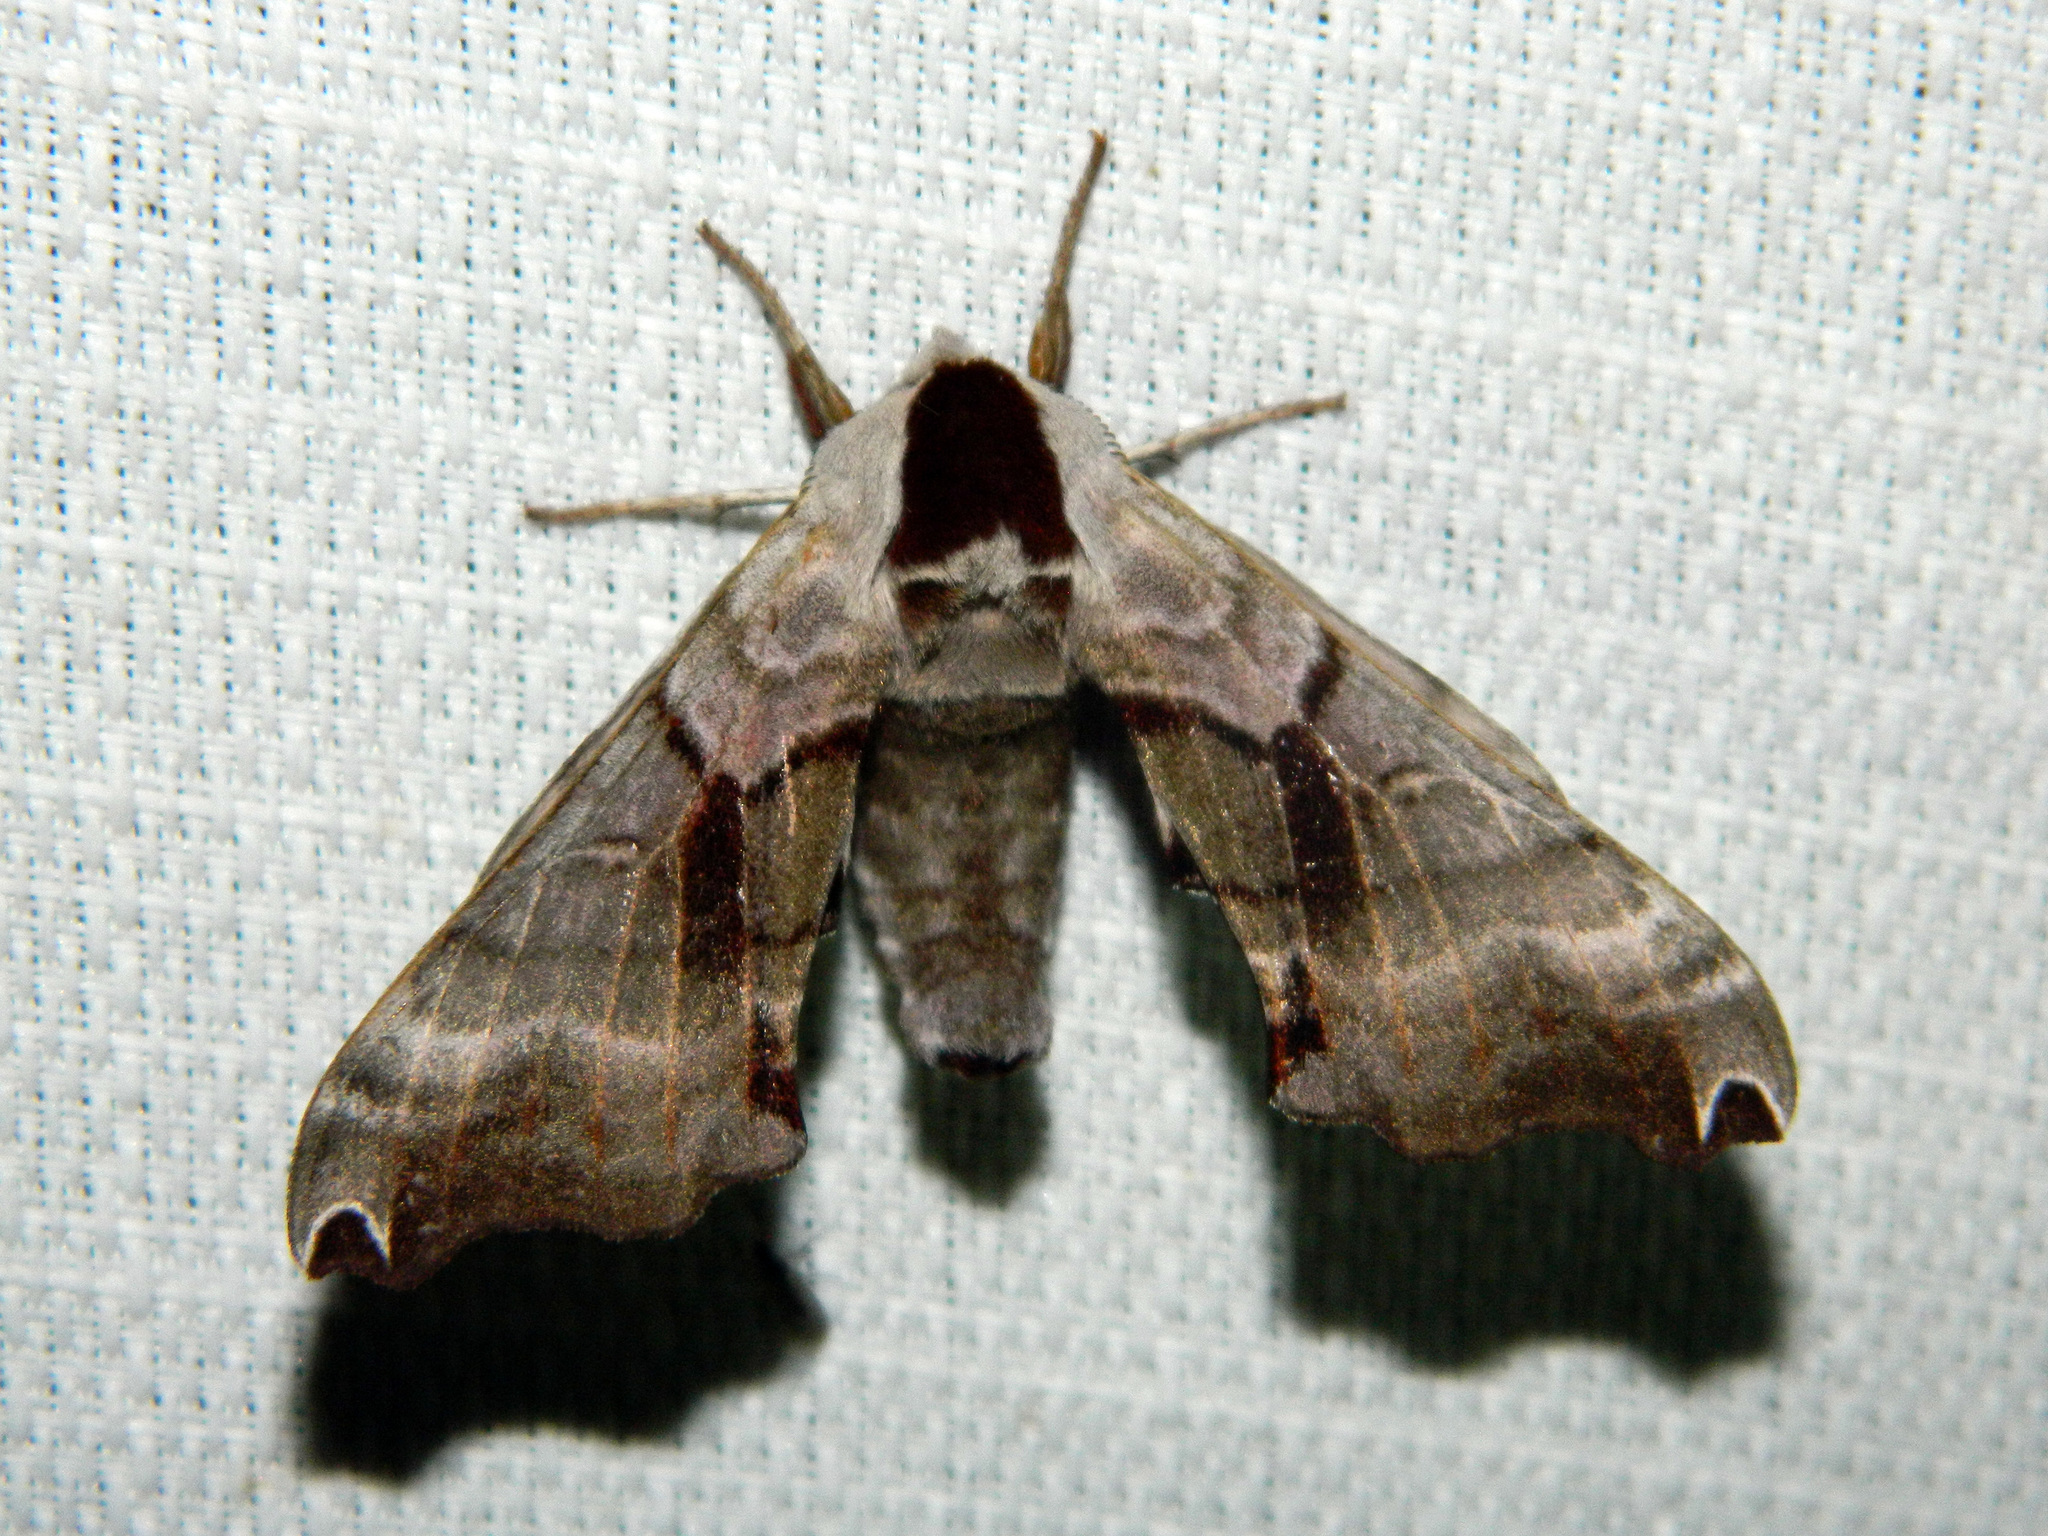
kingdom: Animalia
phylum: Arthropoda
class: Insecta
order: Lepidoptera
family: Sphingidae
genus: Smerinthus
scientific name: Smerinthus jamaicensis
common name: Twin spotted sphinx
